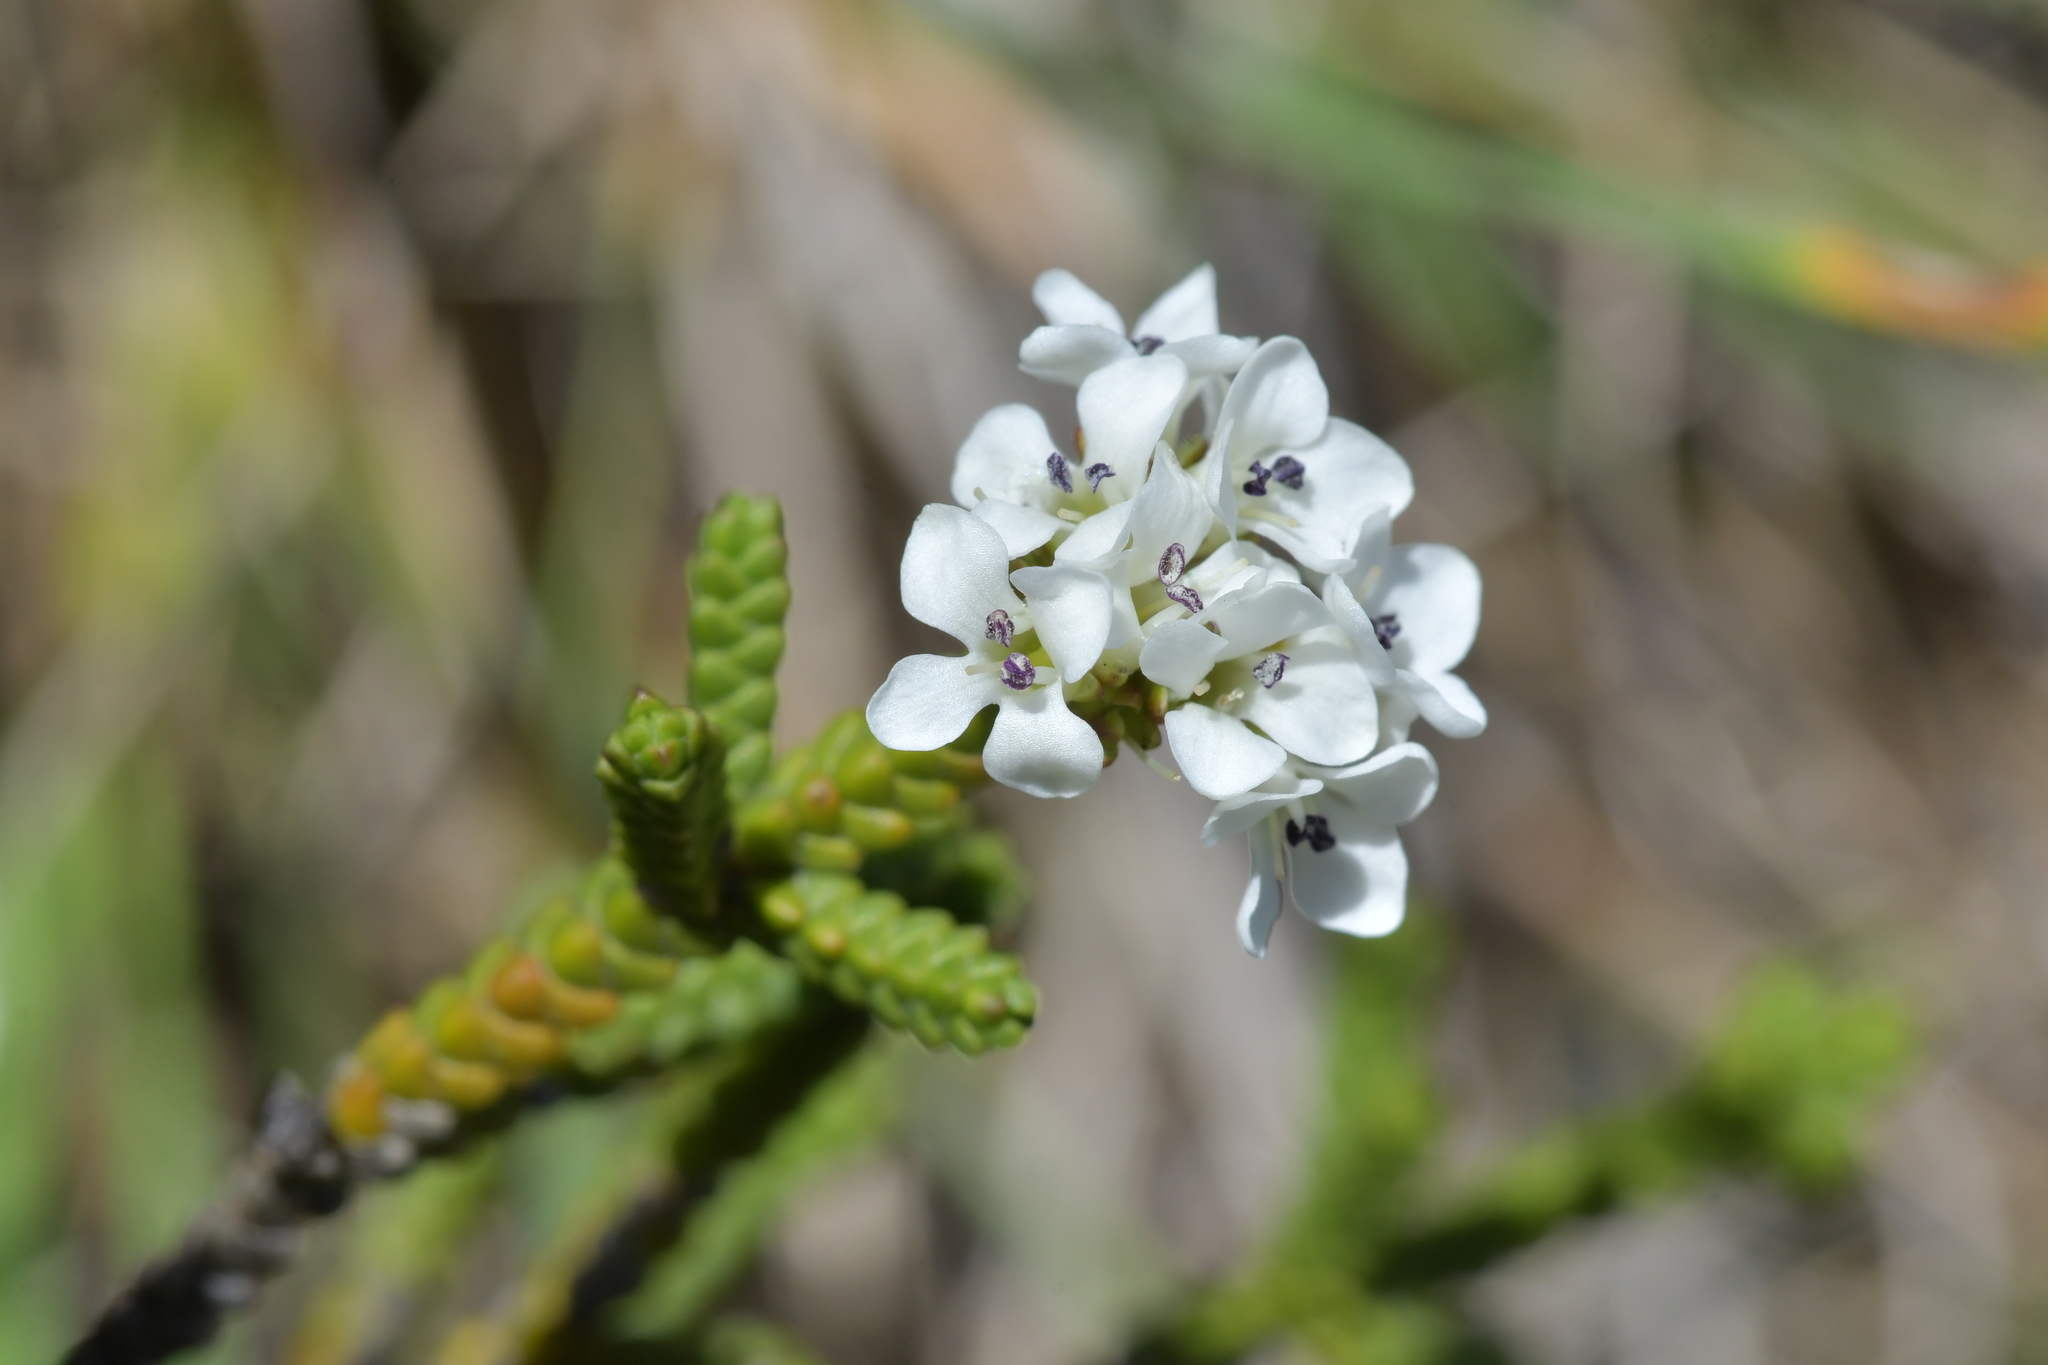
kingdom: Plantae
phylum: Tracheophyta
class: Magnoliopsida
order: Lamiales
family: Plantaginaceae
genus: Veronica
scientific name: Veronica tumida
